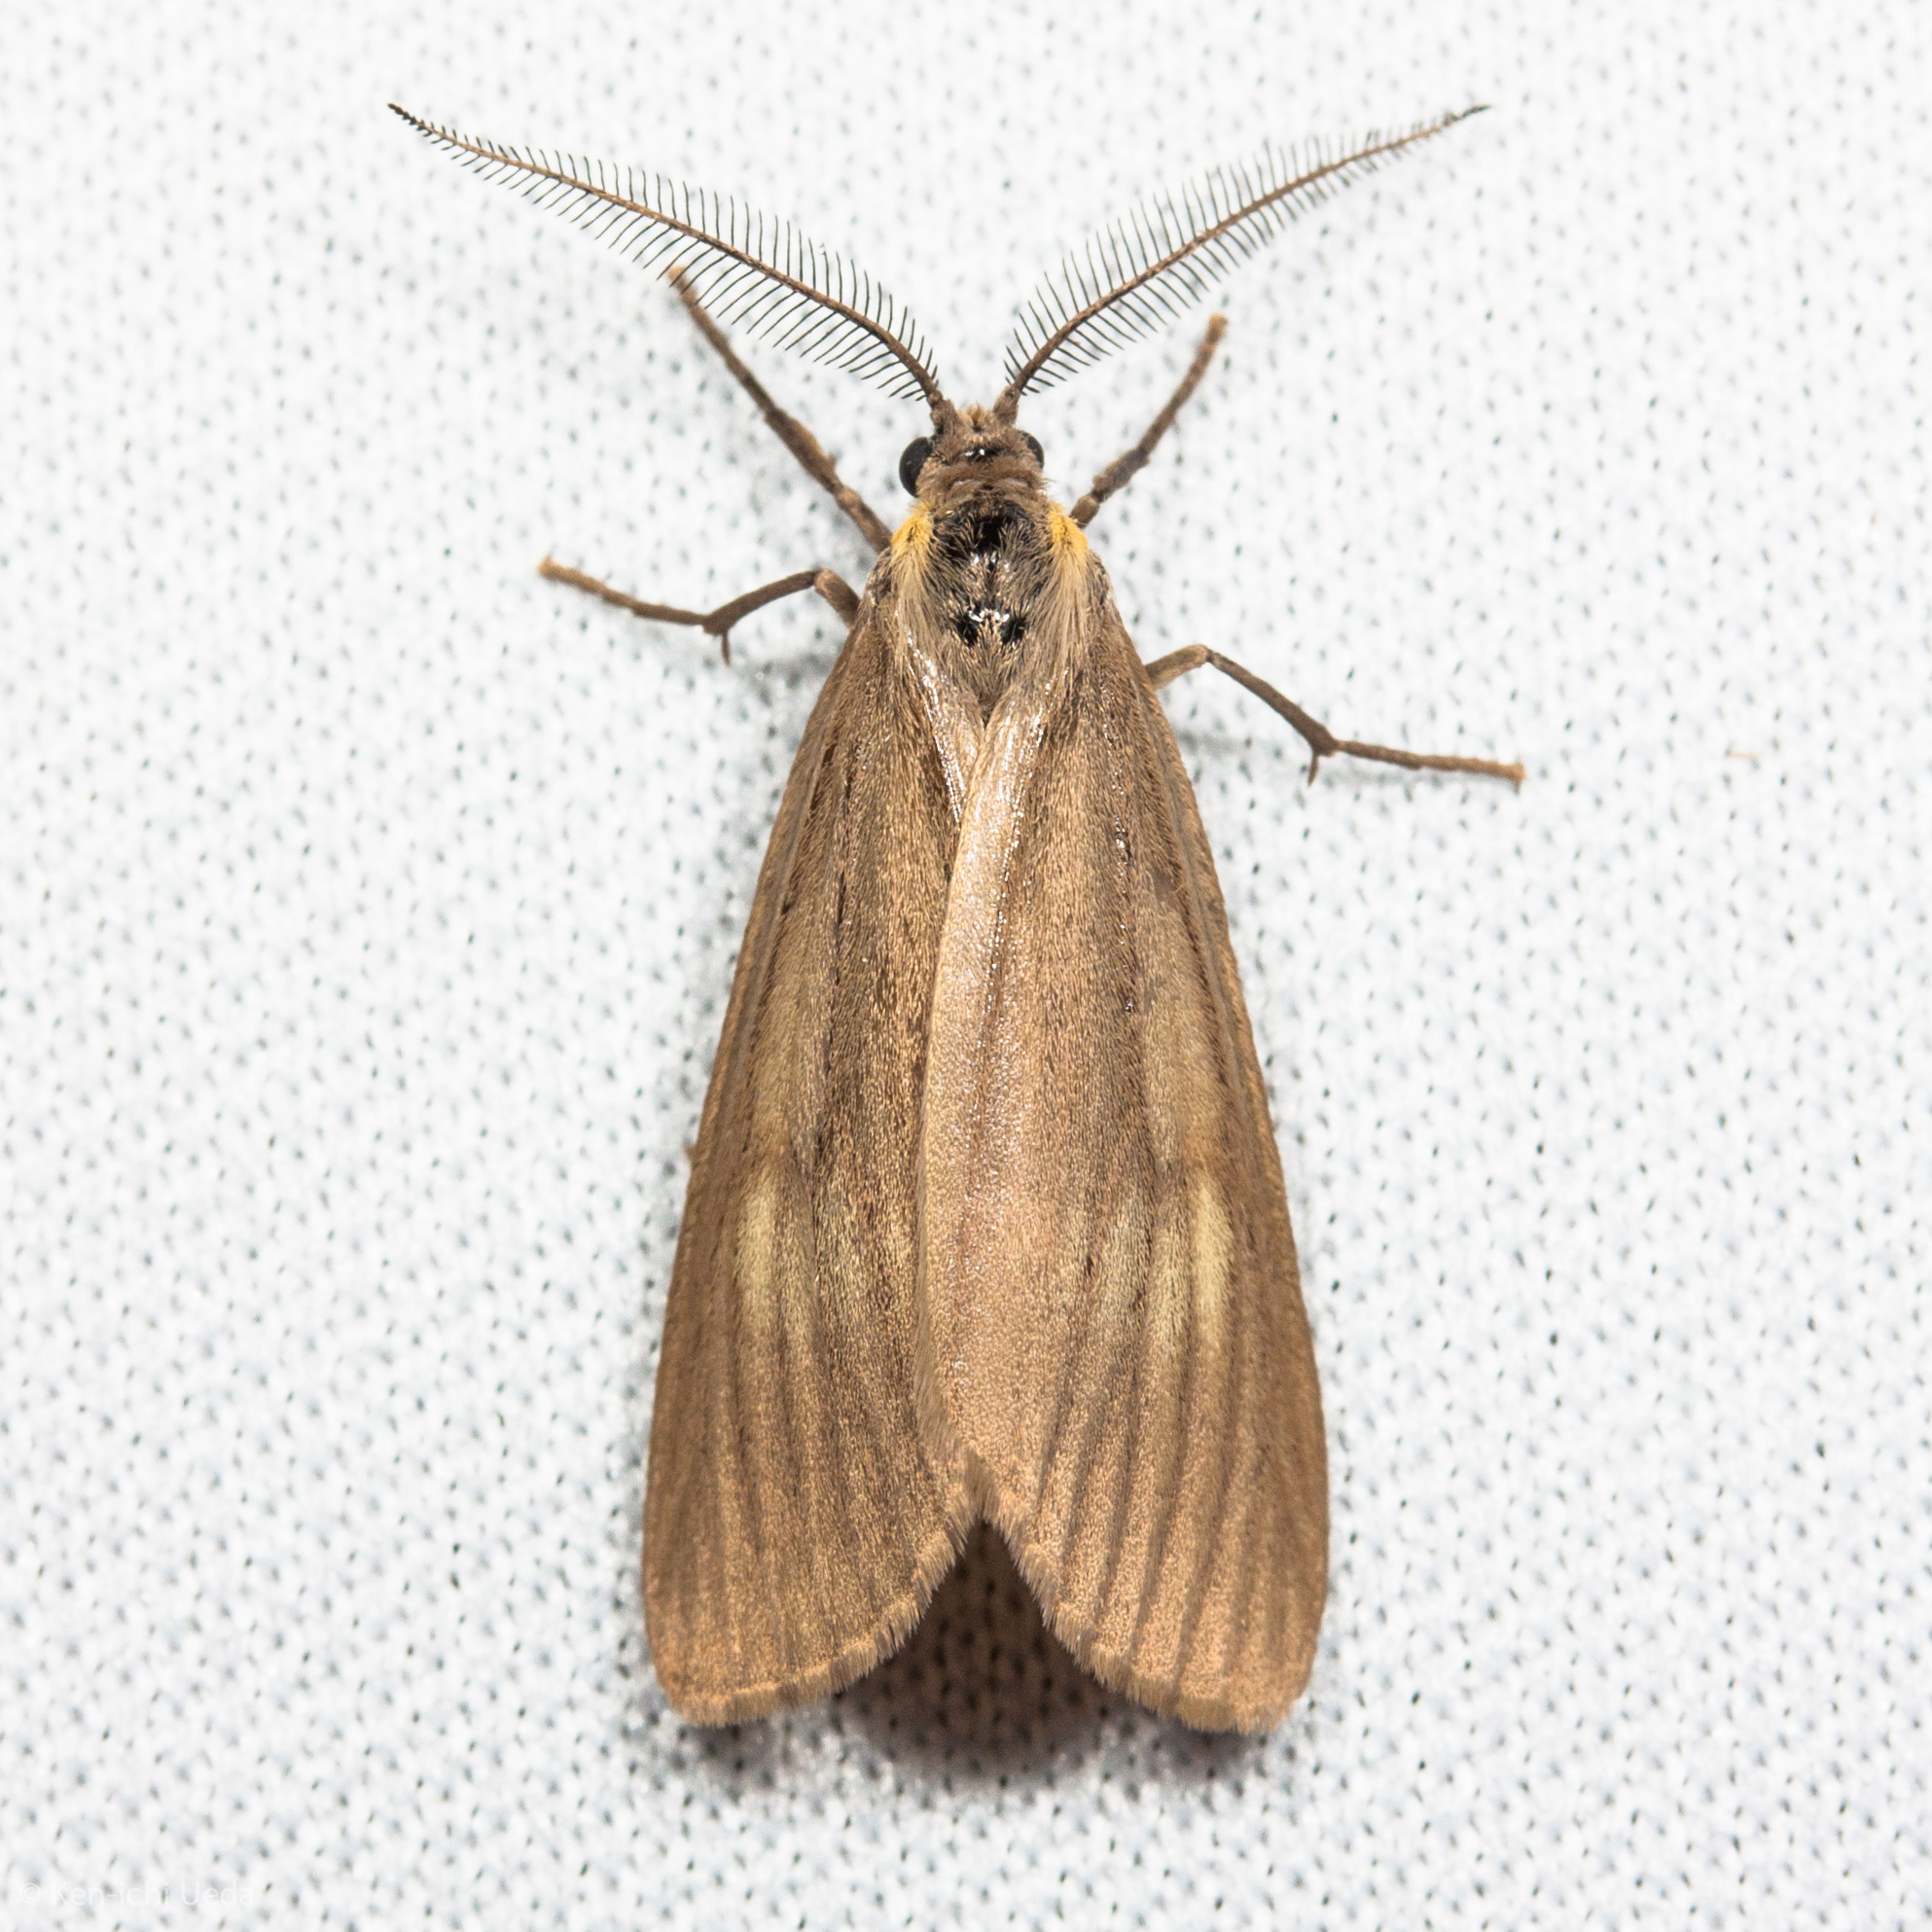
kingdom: Animalia
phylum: Arthropoda
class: Insecta
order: Lepidoptera
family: Notodontidae
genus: Phryganidia
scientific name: Phryganidia californica
